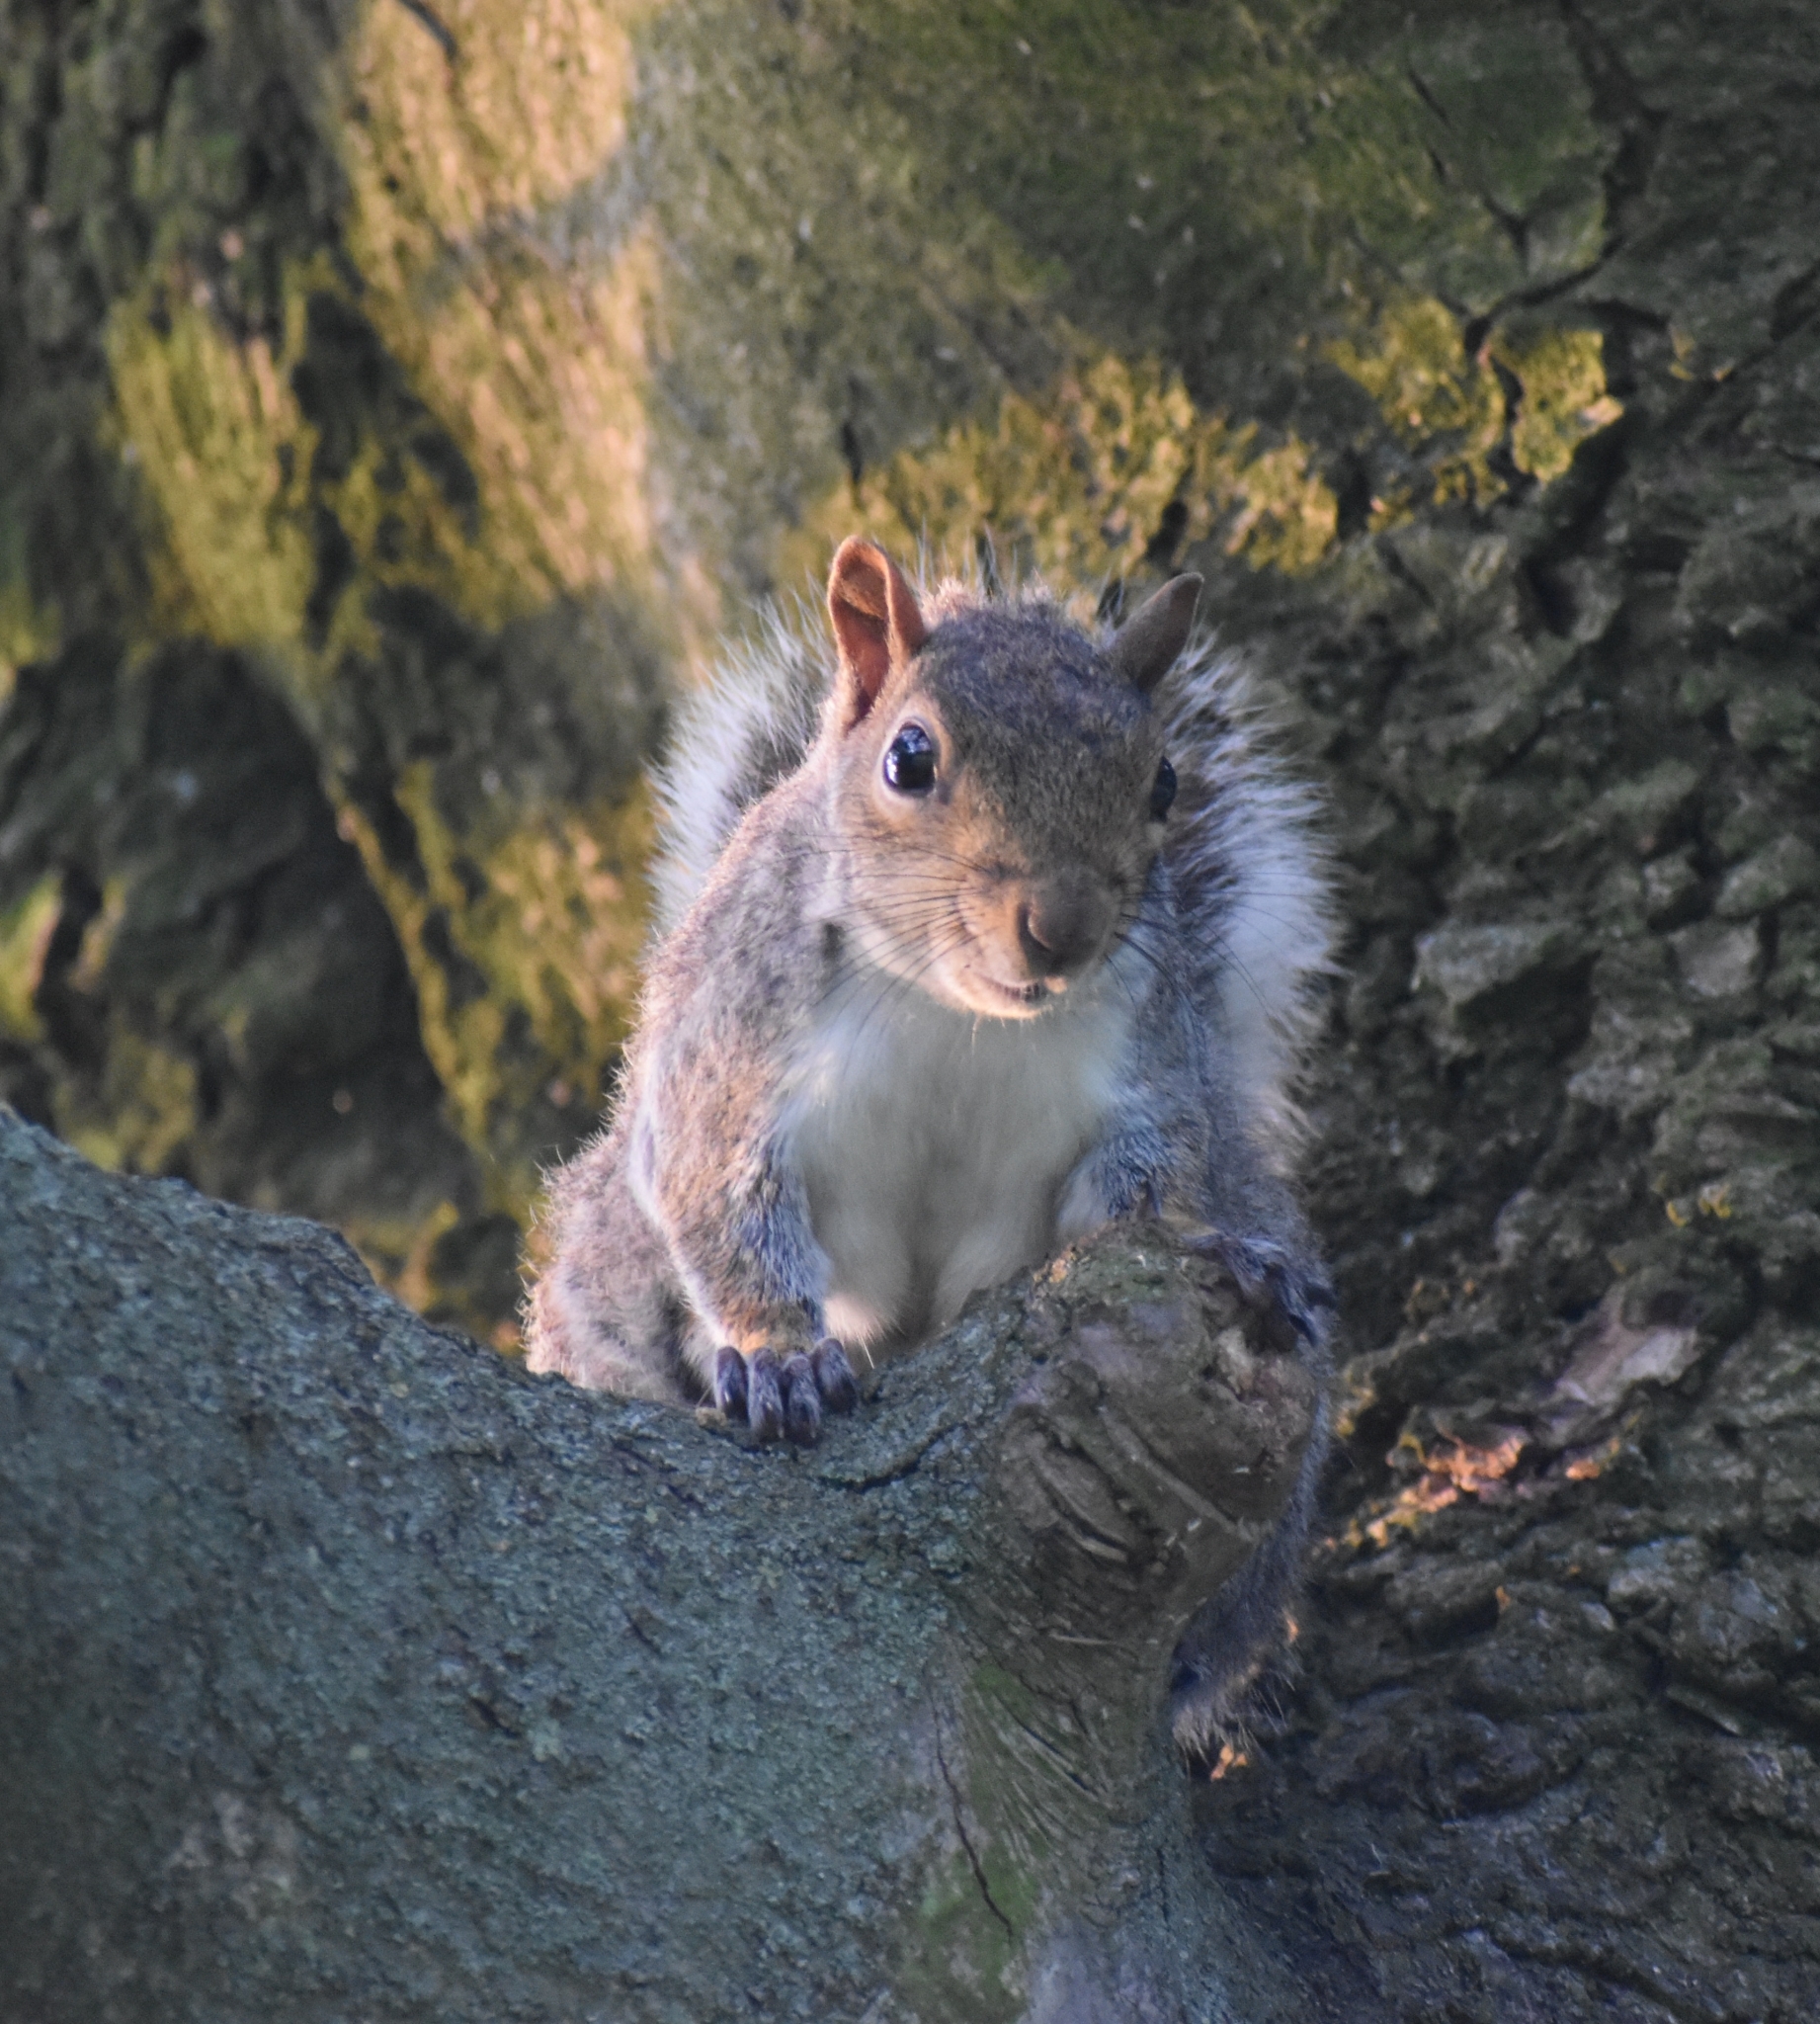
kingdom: Animalia
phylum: Chordata
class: Mammalia
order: Rodentia
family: Sciuridae
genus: Sciurus
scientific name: Sciurus carolinensis
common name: Eastern gray squirrel
